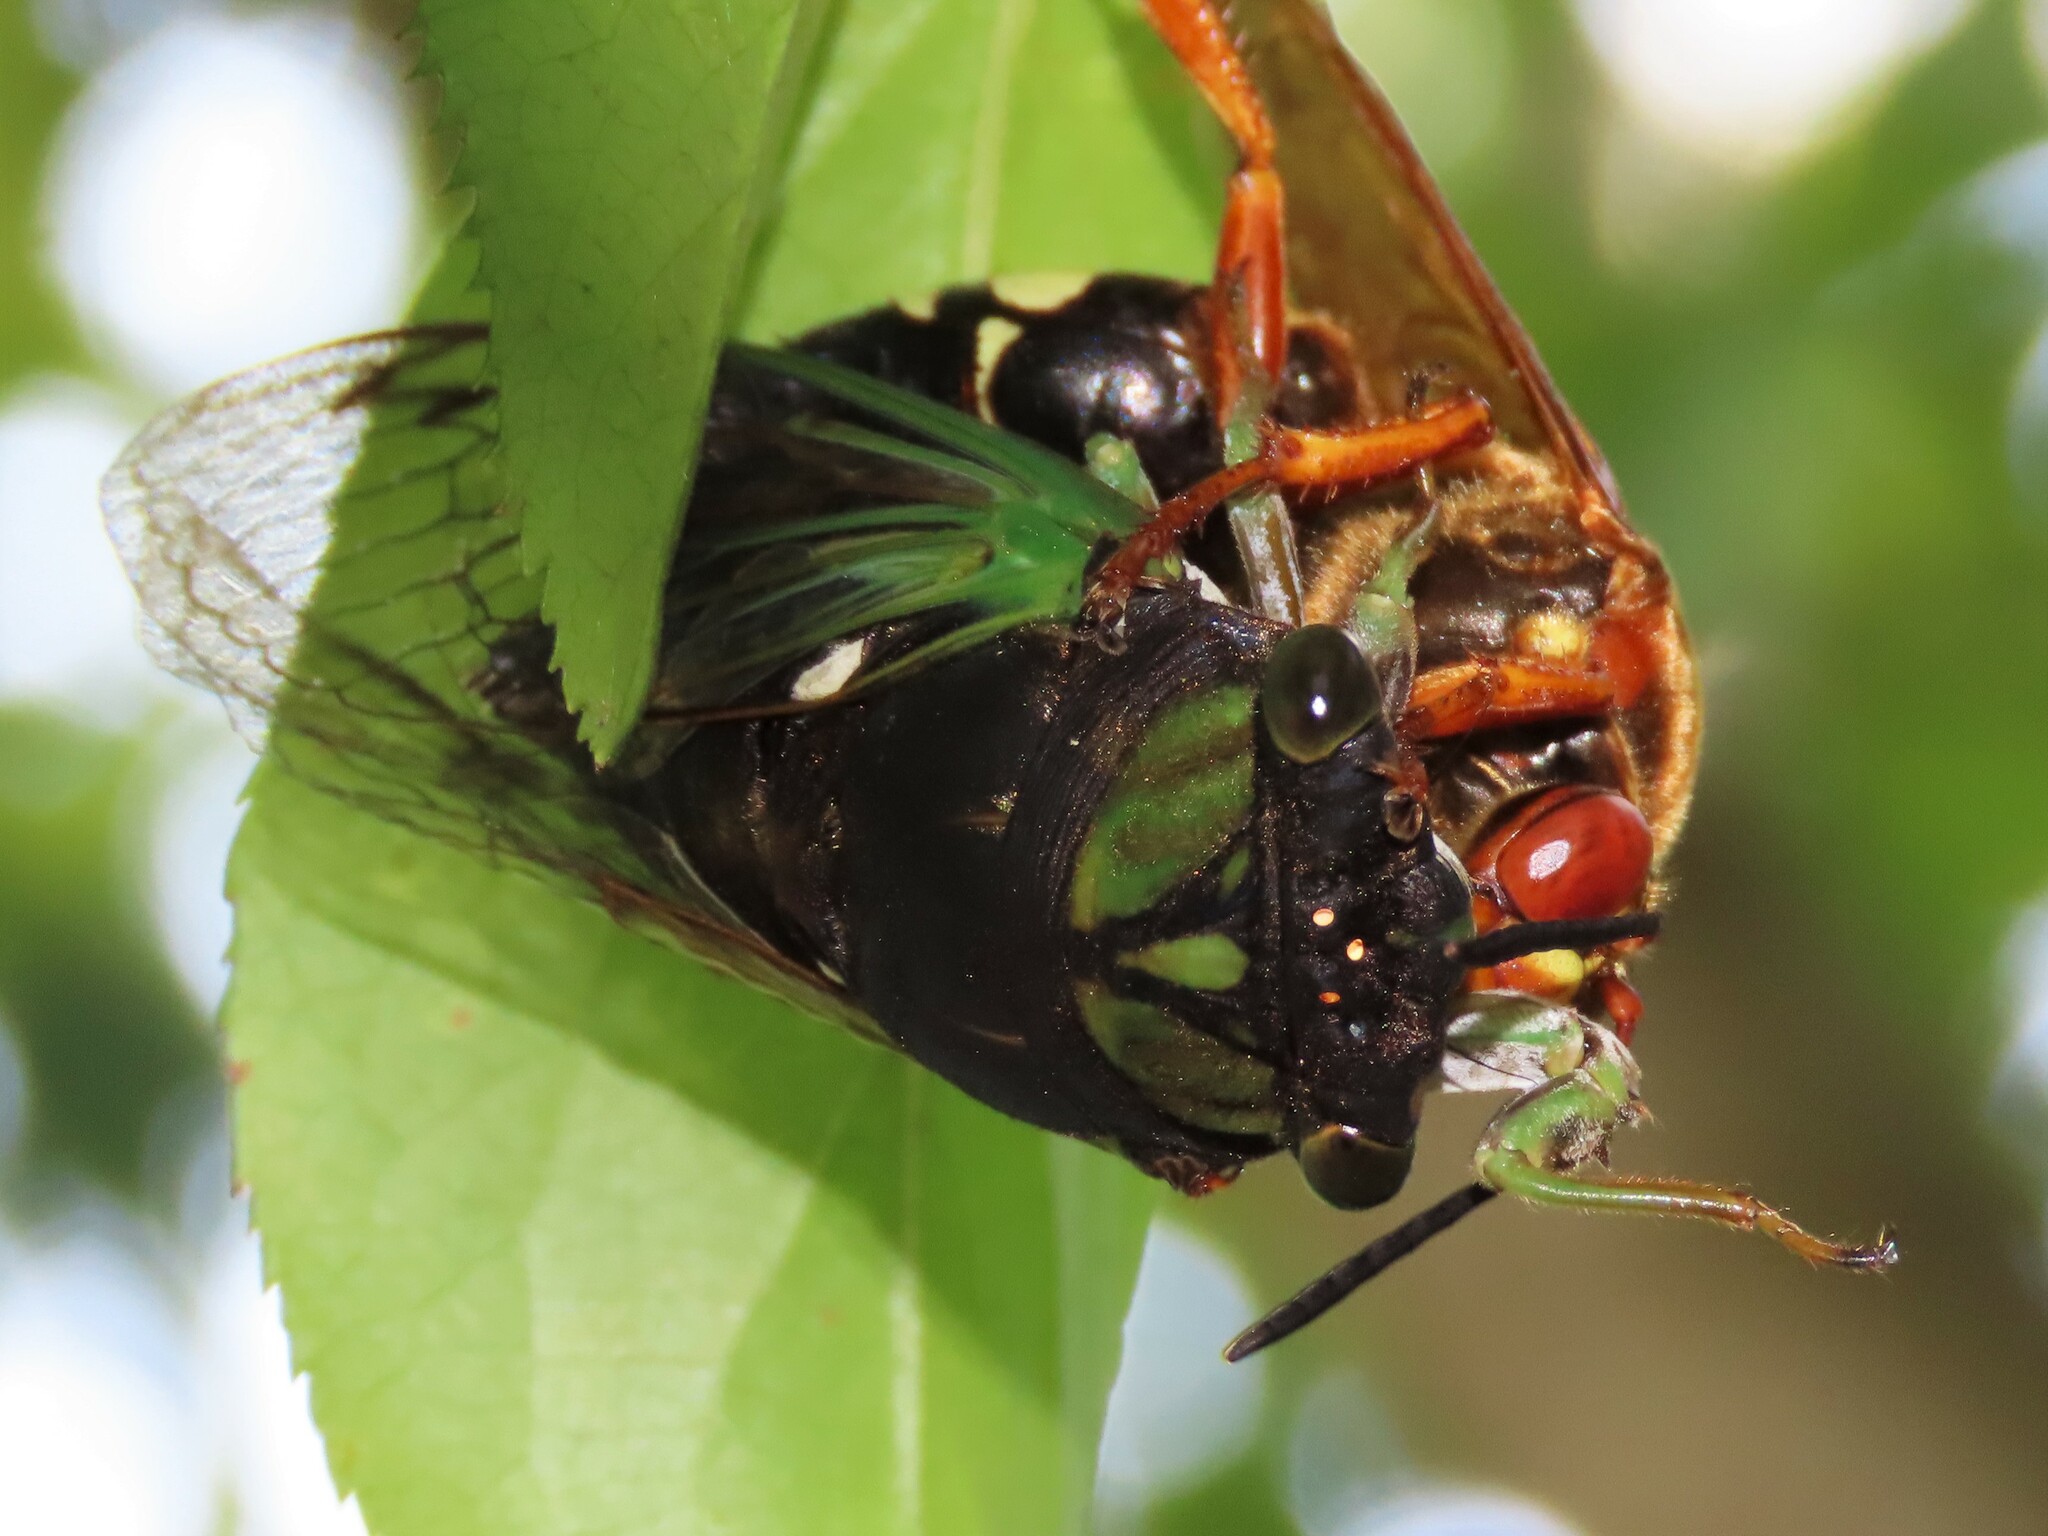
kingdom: Animalia
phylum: Arthropoda
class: Insecta
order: Hemiptera
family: Cicadidae
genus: Neotibicen
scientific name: Neotibicen tibicen
